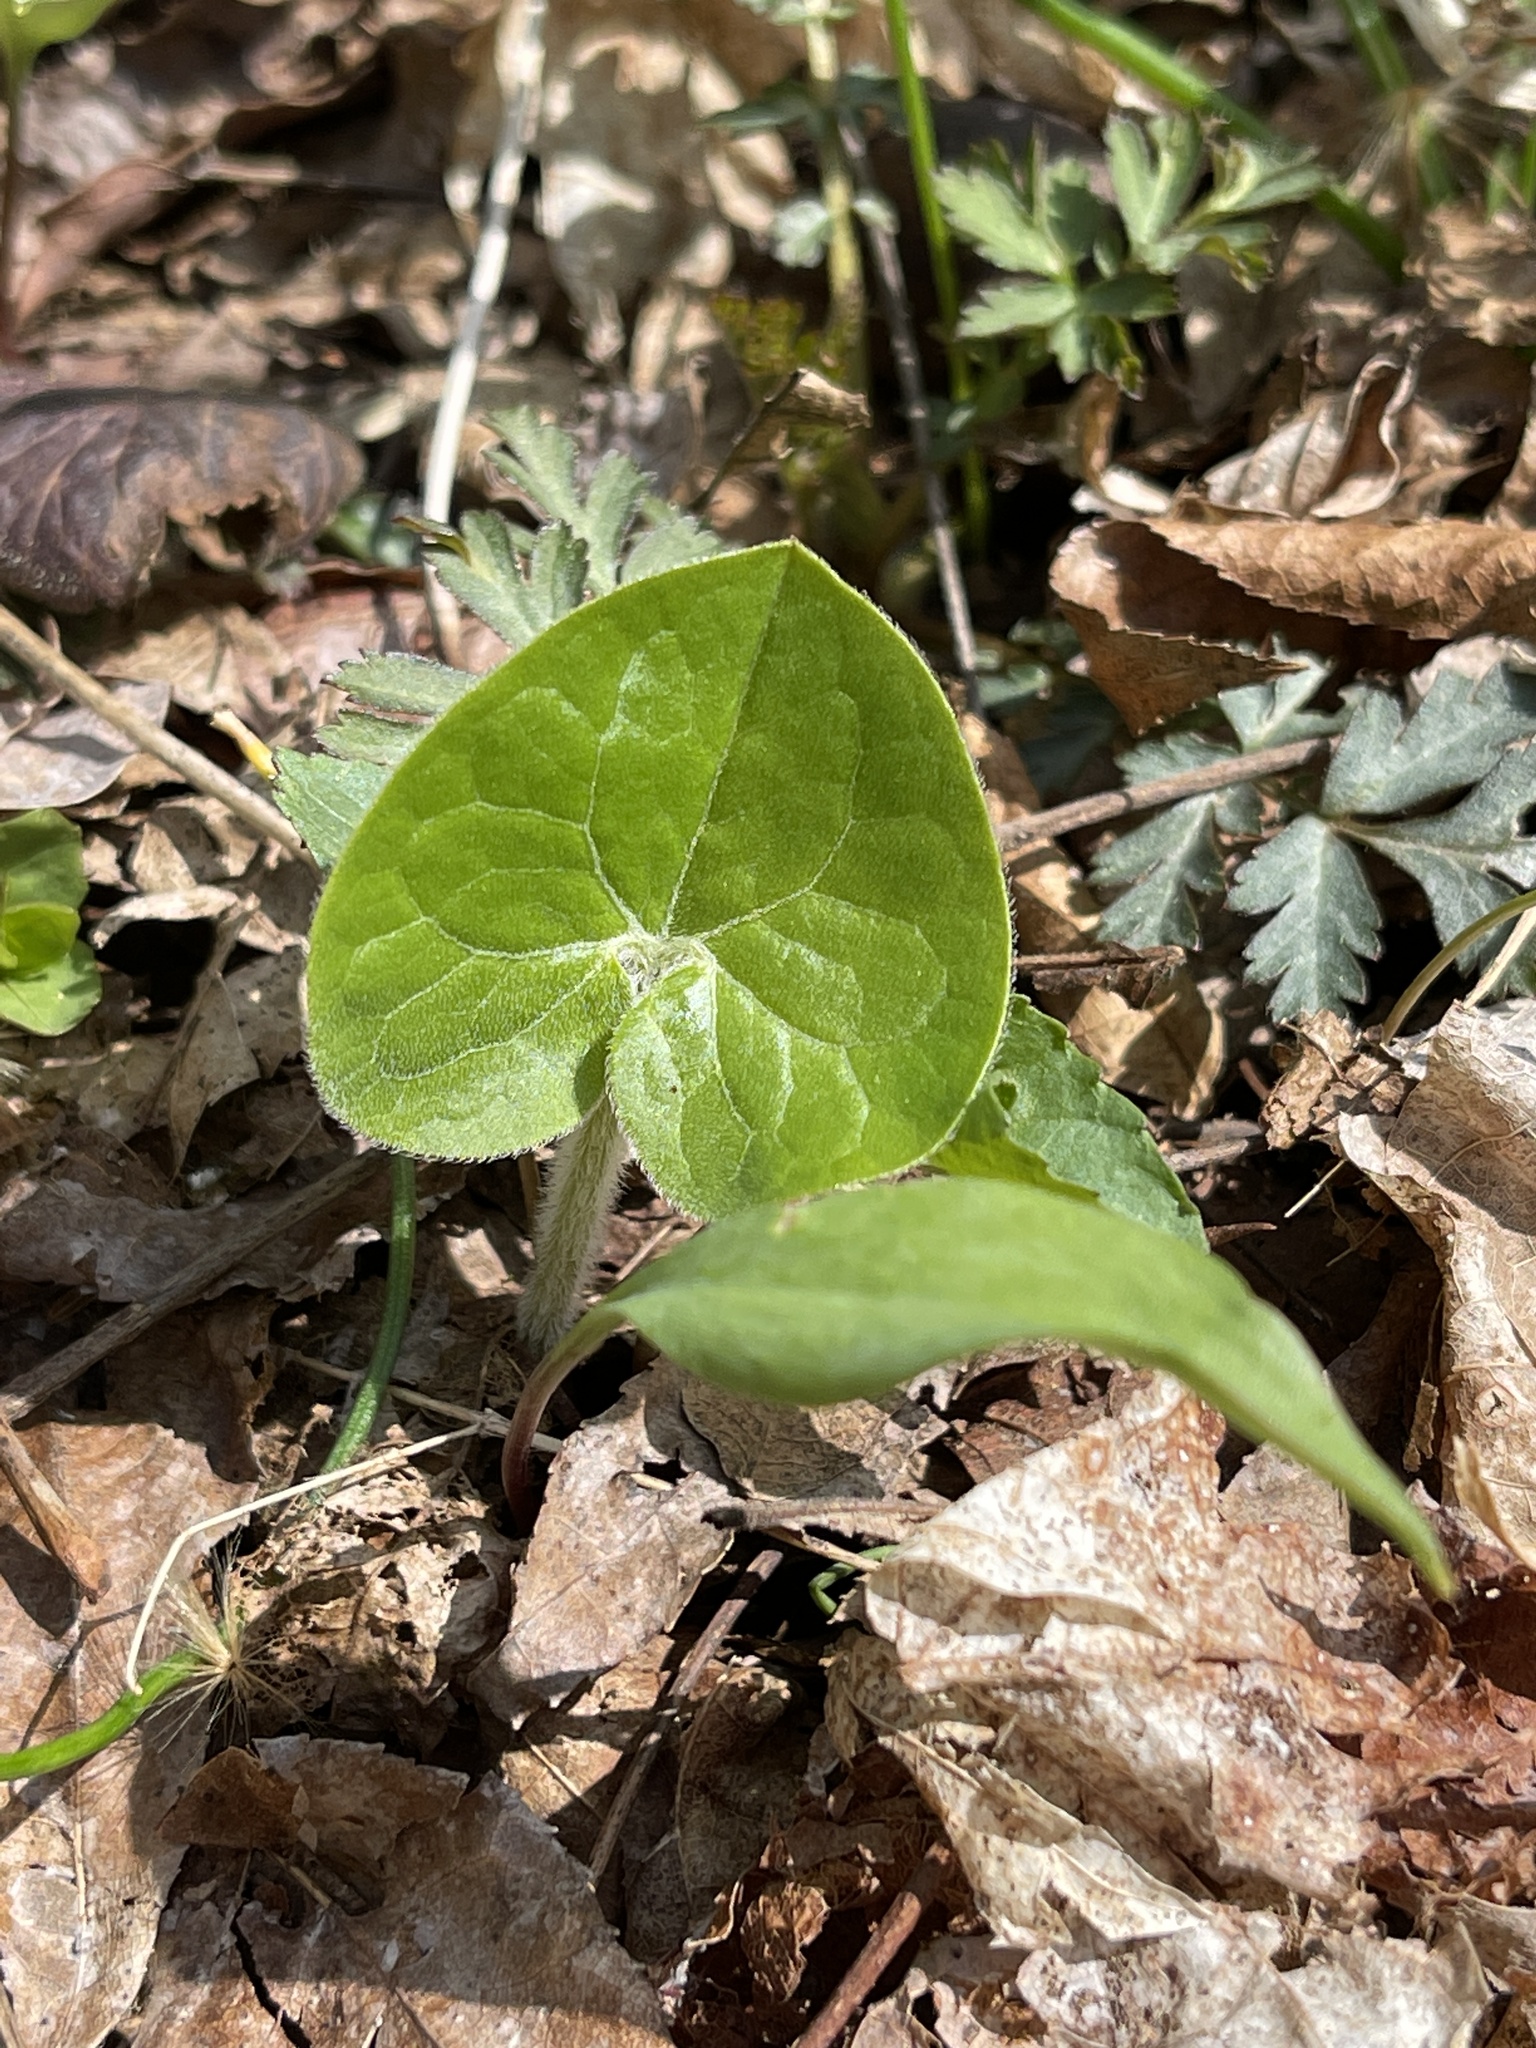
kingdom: Plantae
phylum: Tracheophyta
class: Magnoliopsida
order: Piperales
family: Aristolochiaceae
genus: Asarum
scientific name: Asarum canadense
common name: Wild ginger
